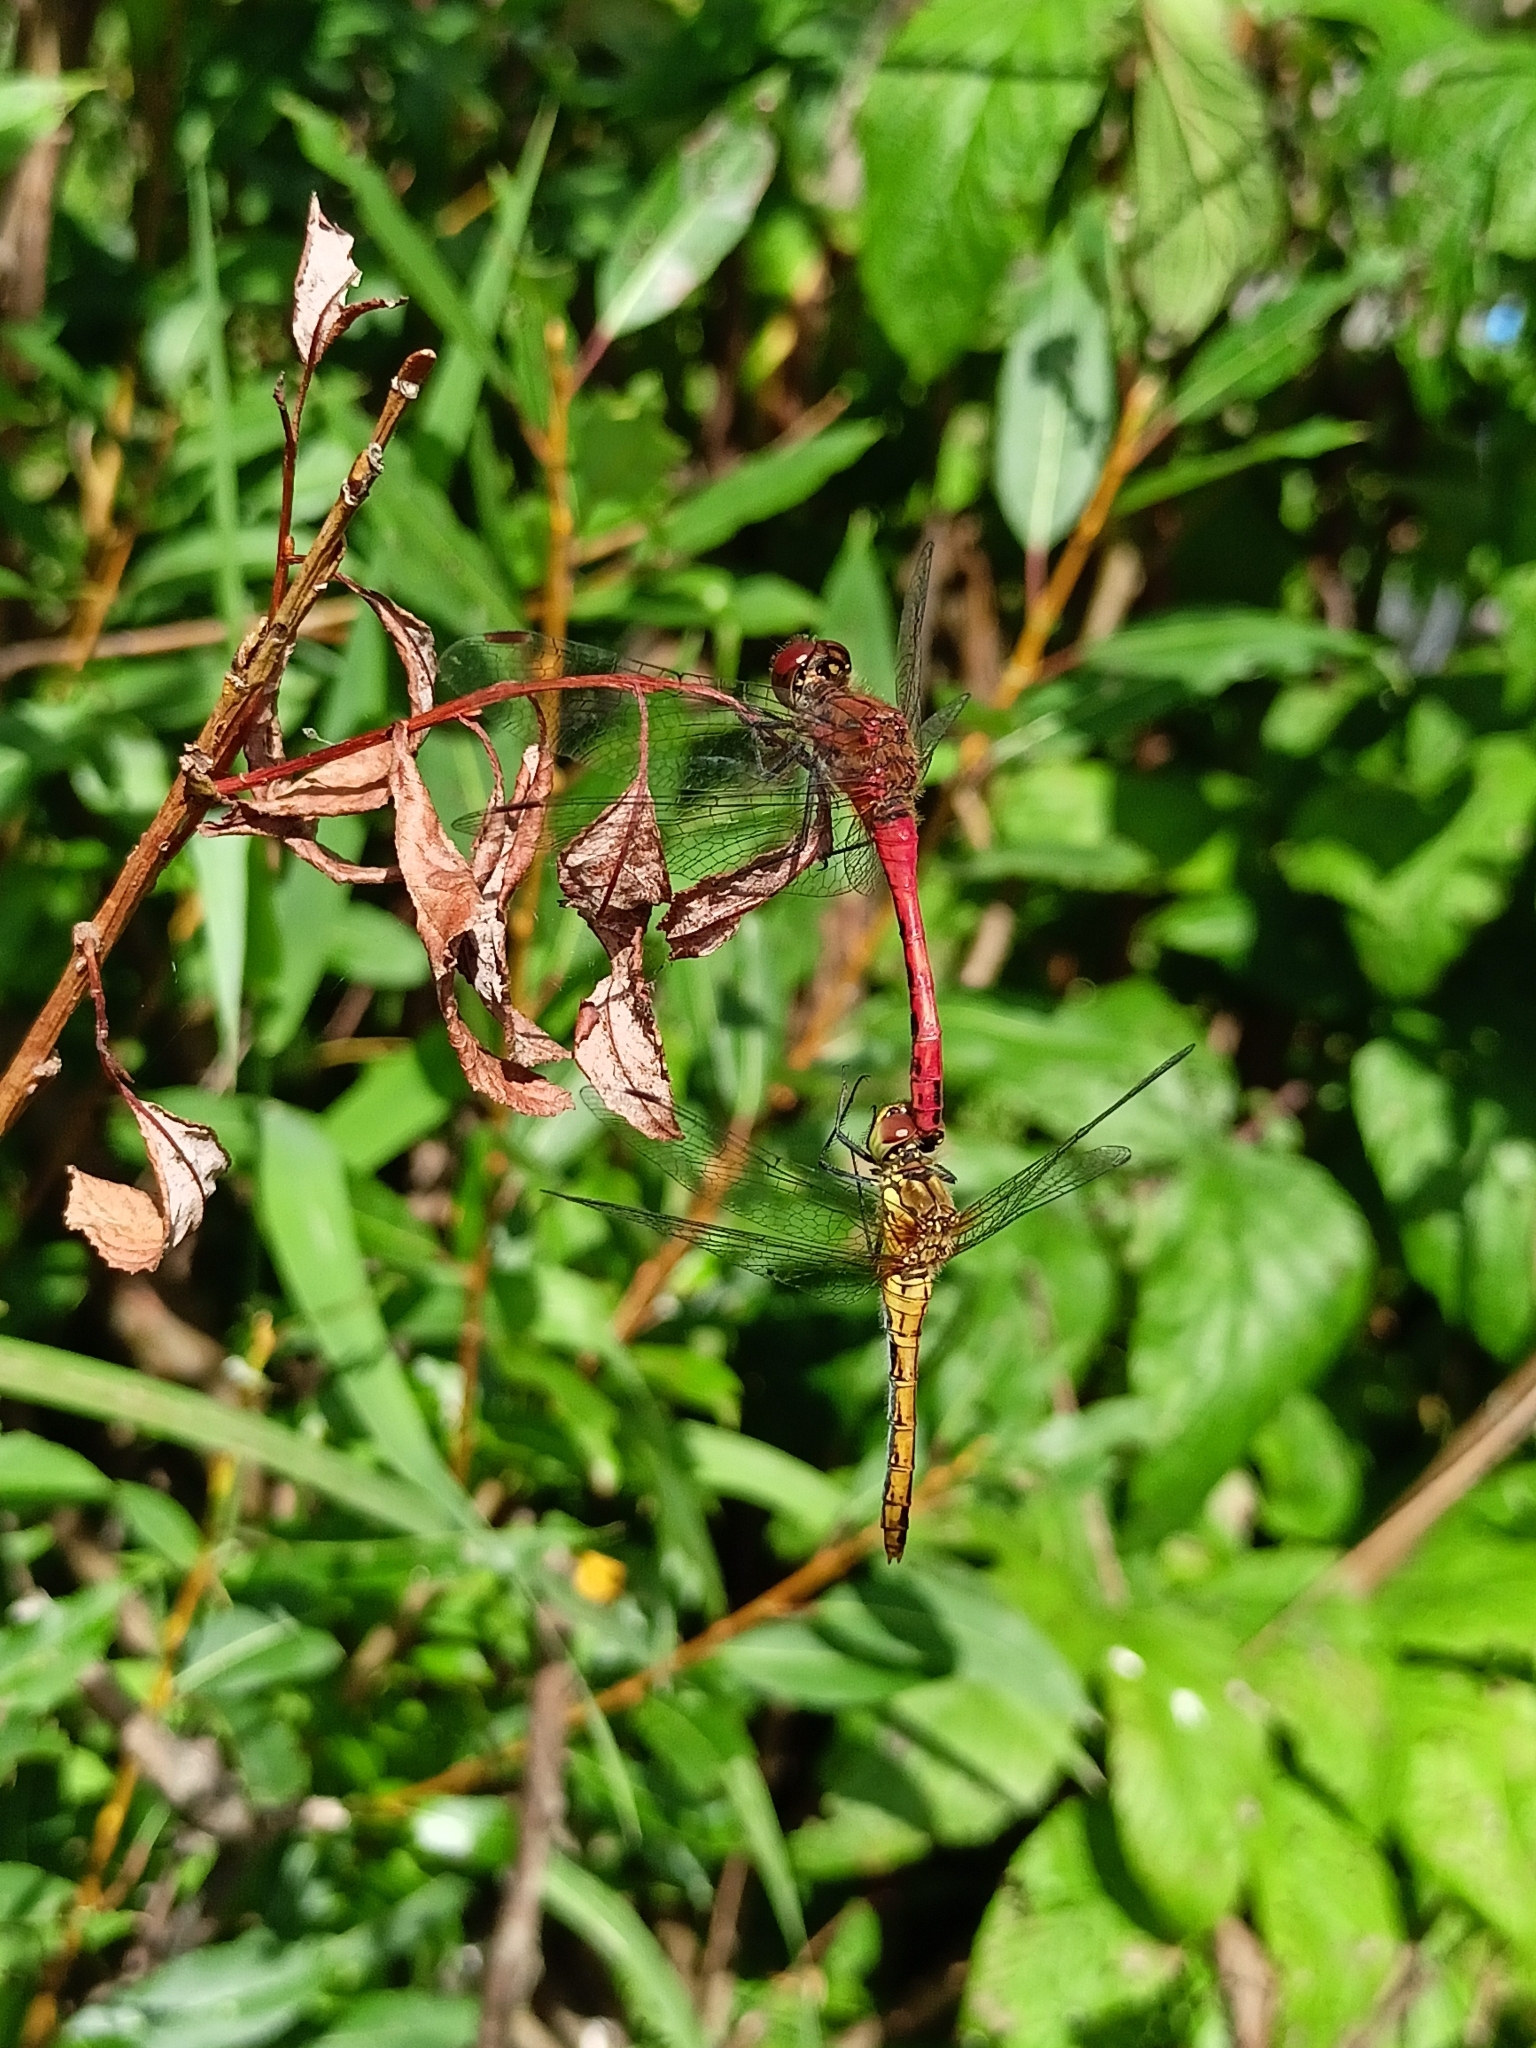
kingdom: Animalia
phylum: Arthropoda
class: Insecta
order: Odonata
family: Libellulidae
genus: Sympetrum
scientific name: Sympetrum sanguineum
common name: Ruddy darter
